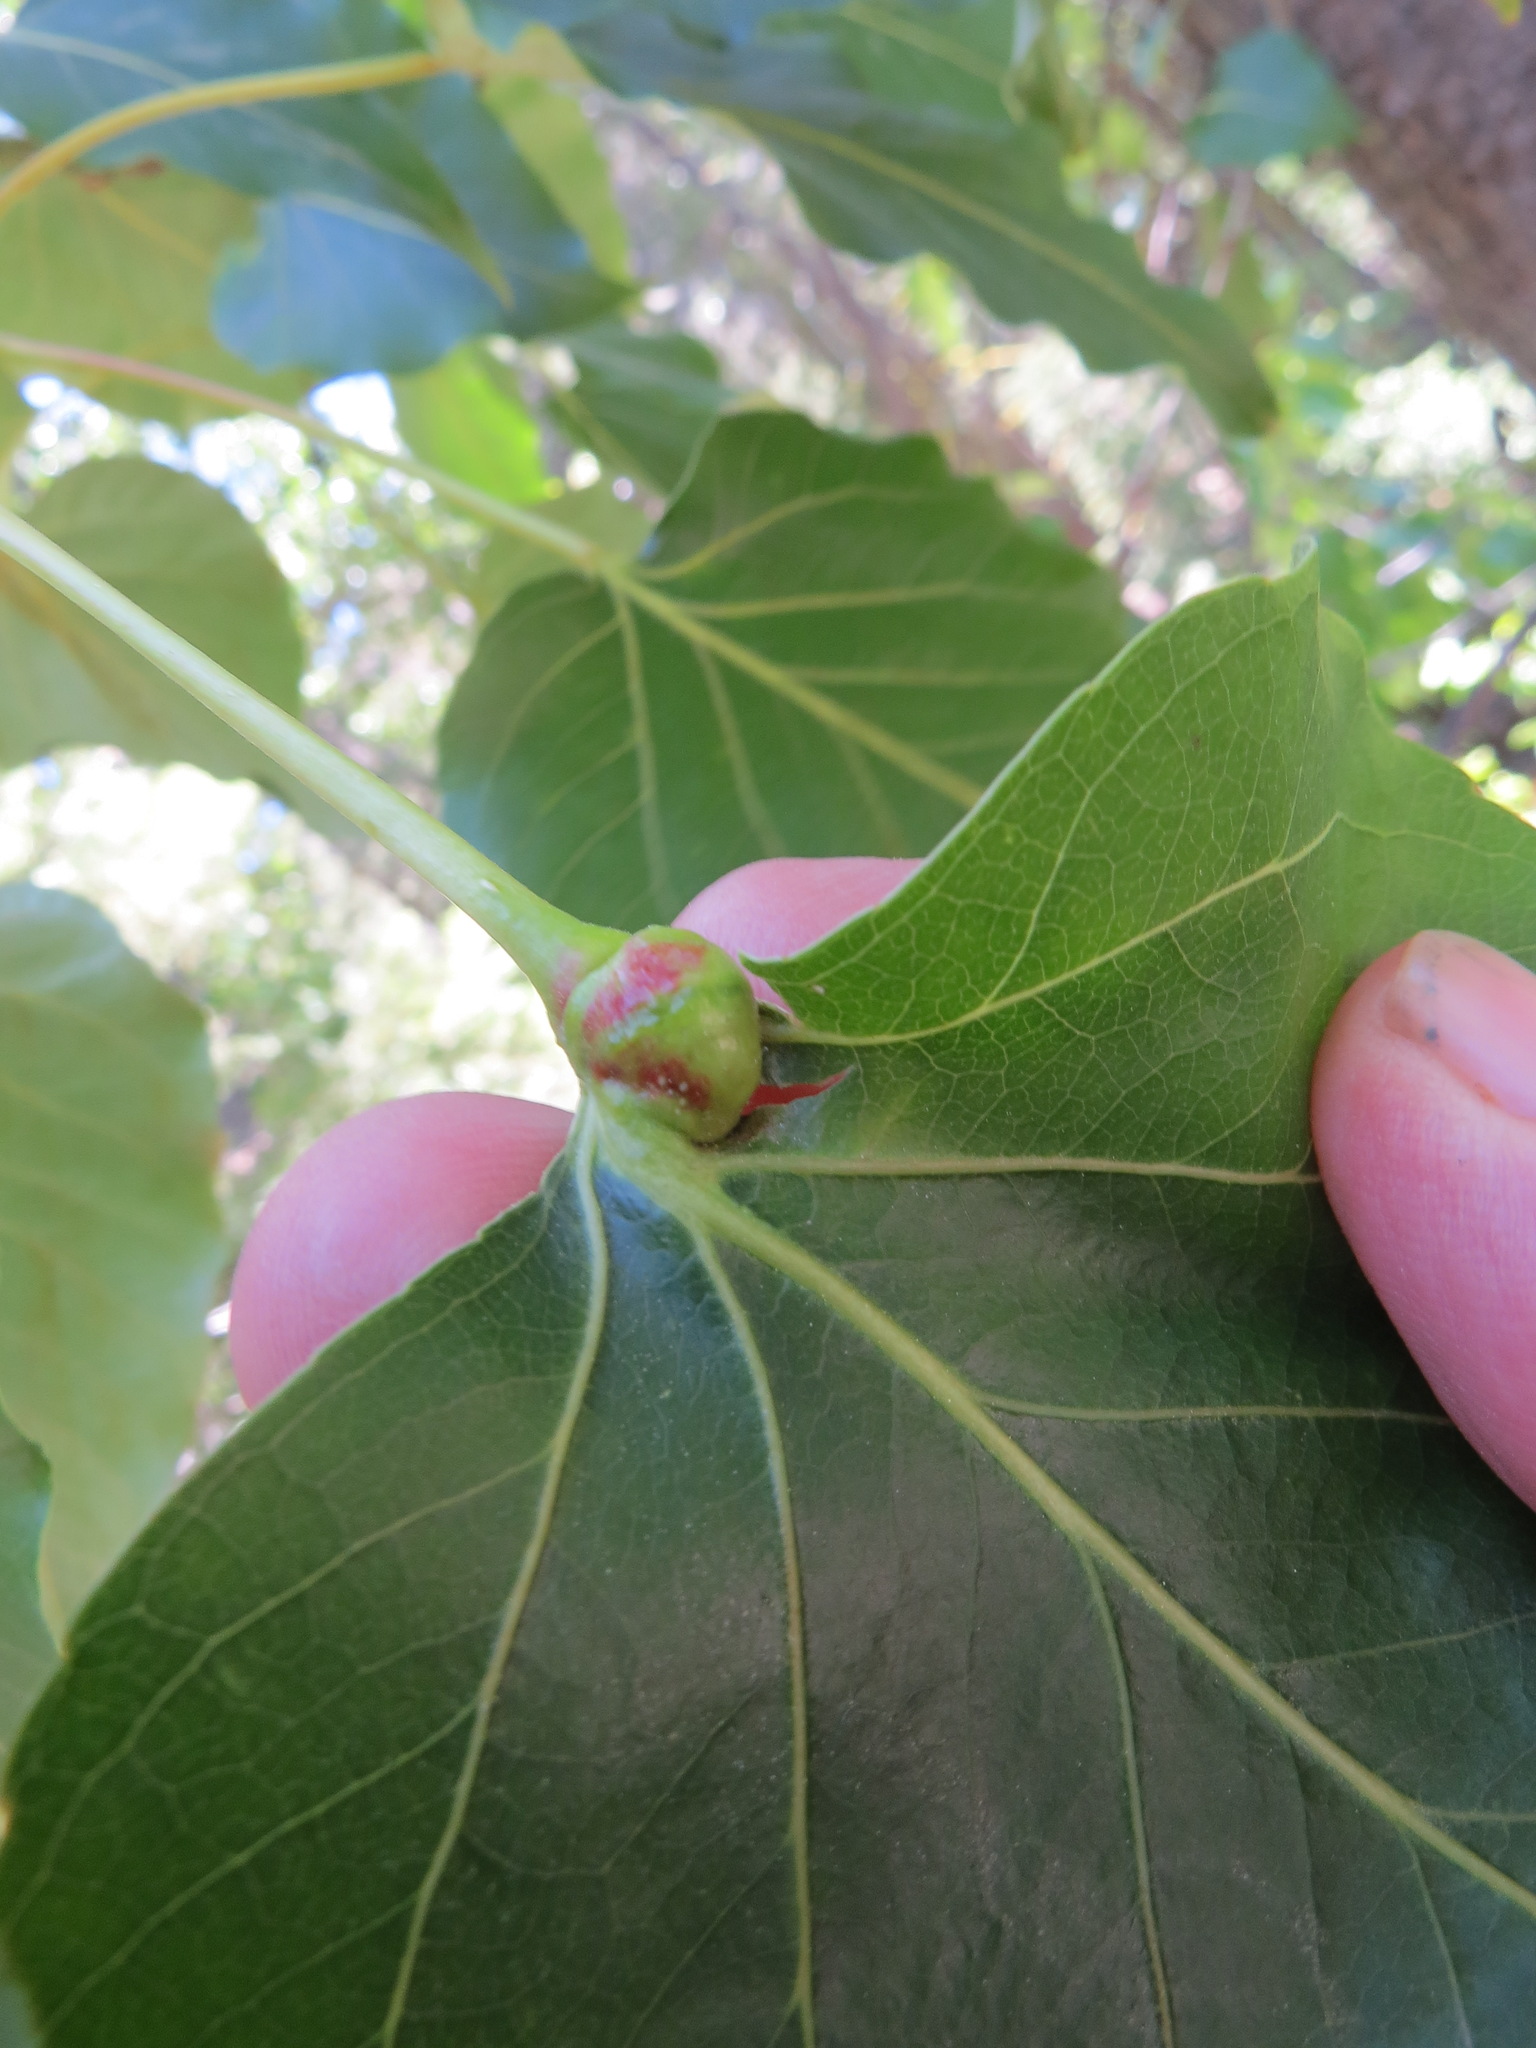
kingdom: Animalia
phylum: Arthropoda
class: Insecta
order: Hemiptera
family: Aphididae
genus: Pemphigus
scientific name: Pemphigus populi-globuli
